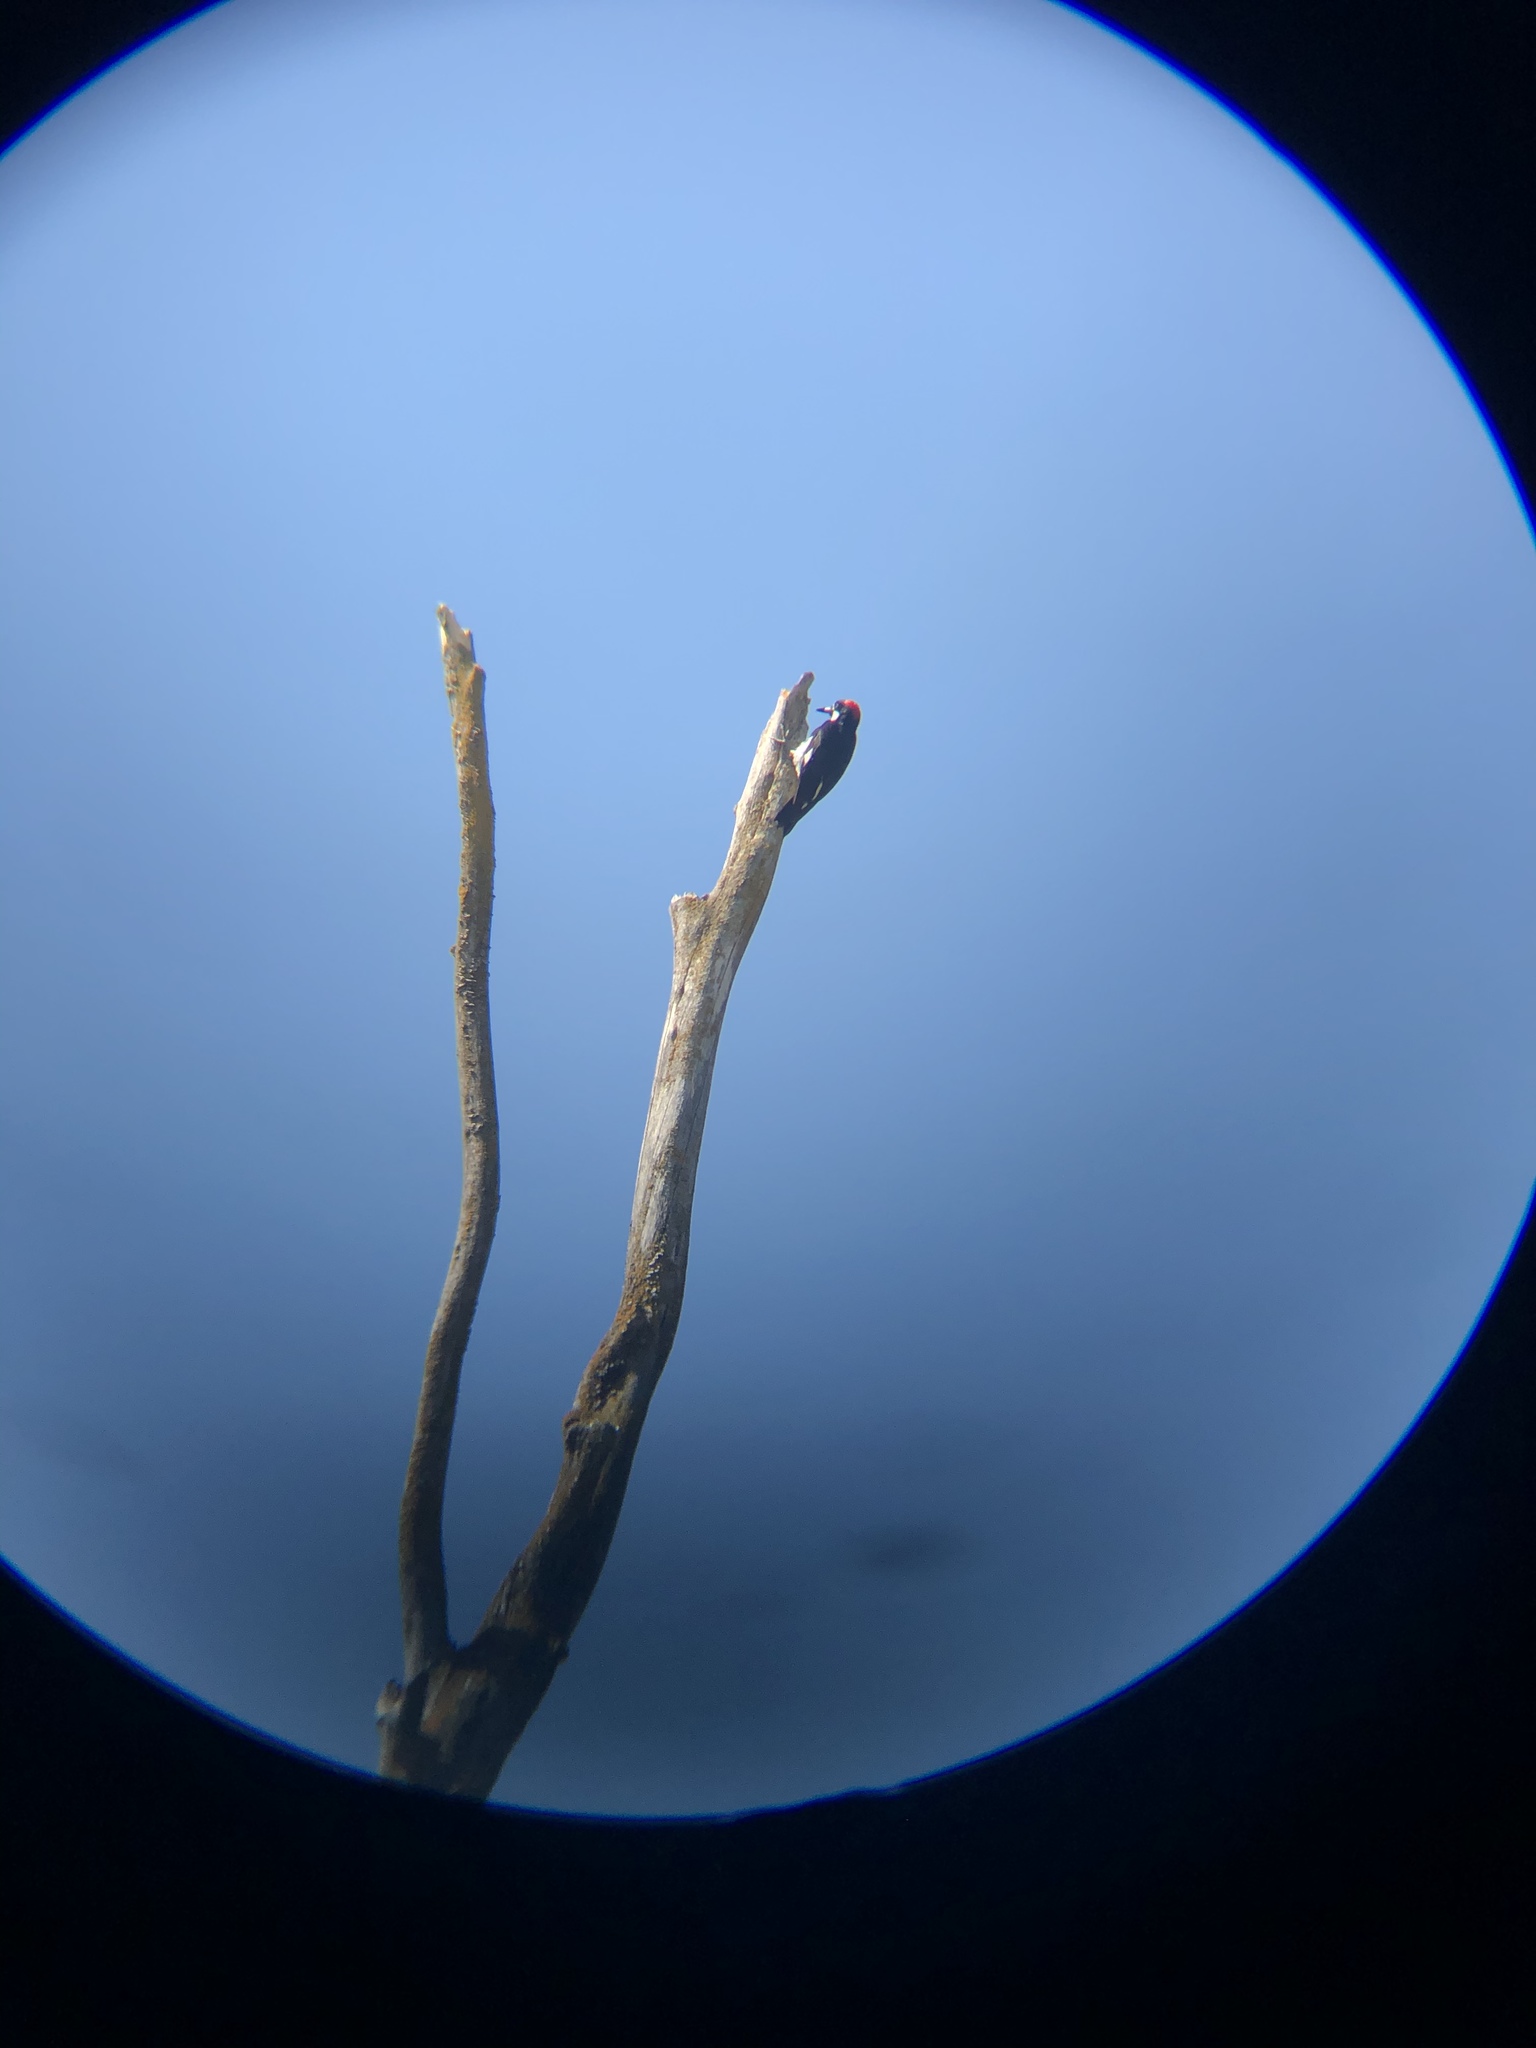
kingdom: Animalia
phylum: Chordata
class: Aves
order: Piciformes
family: Picidae
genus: Melanerpes
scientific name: Melanerpes formicivorus
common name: Acorn woodpecker
